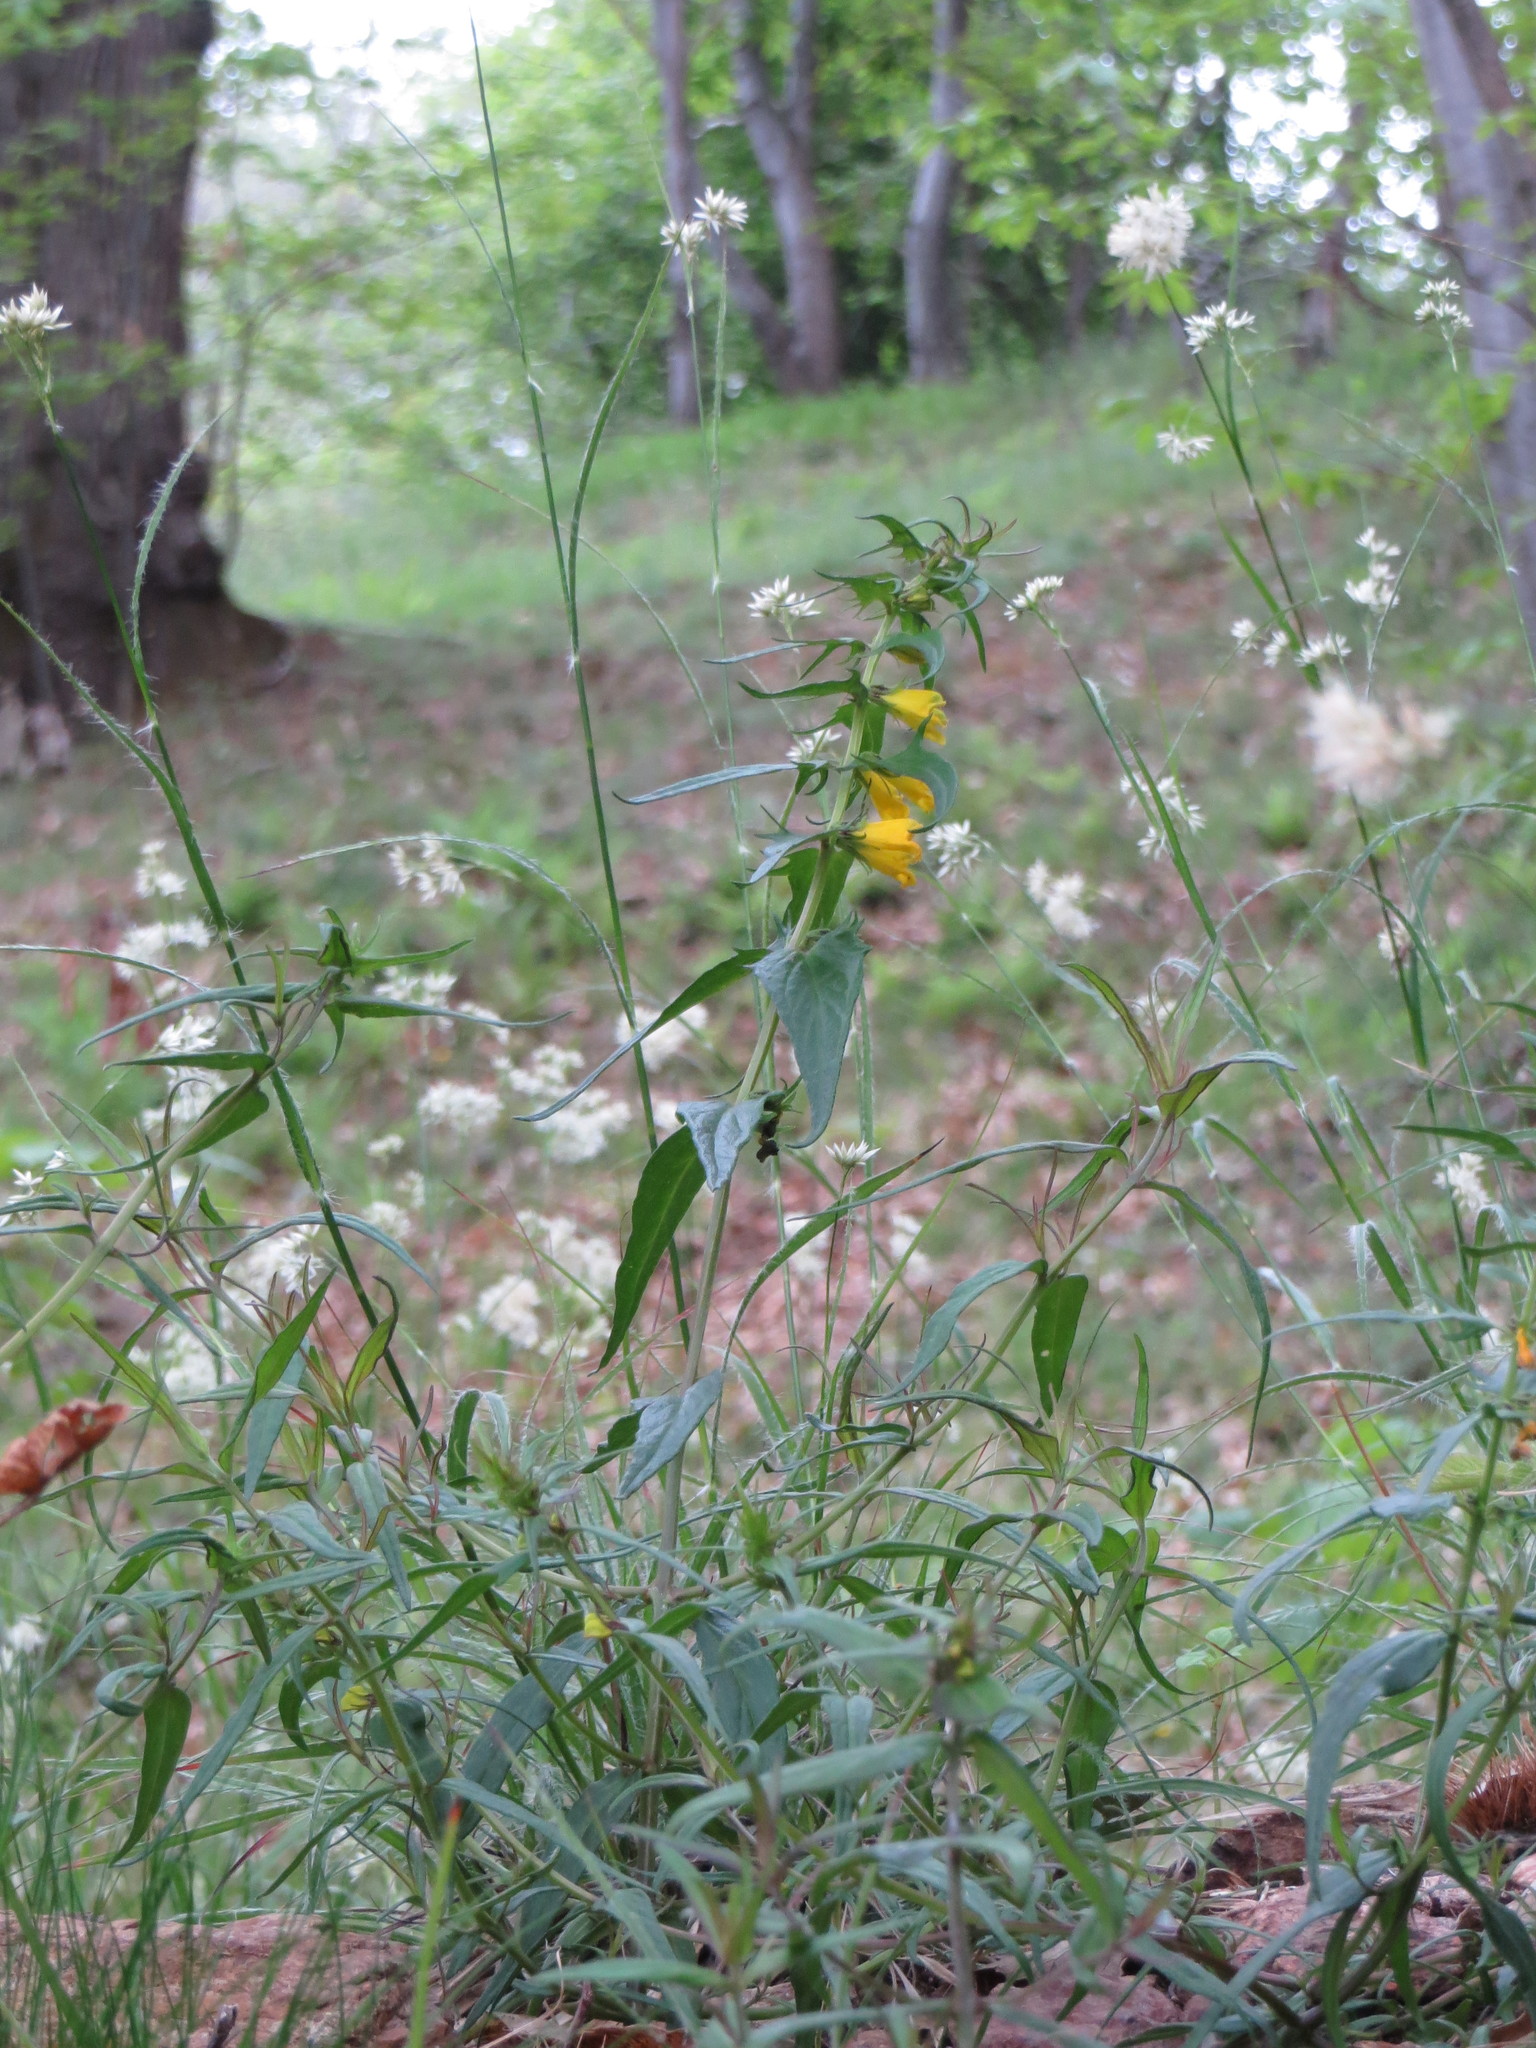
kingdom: Plantae
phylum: Tracheophyta
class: Magnoliopsida
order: Lamiales
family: Orobanchaceae
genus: Melampyrum
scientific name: Melampyrum pratense
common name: Common cow-wheat
